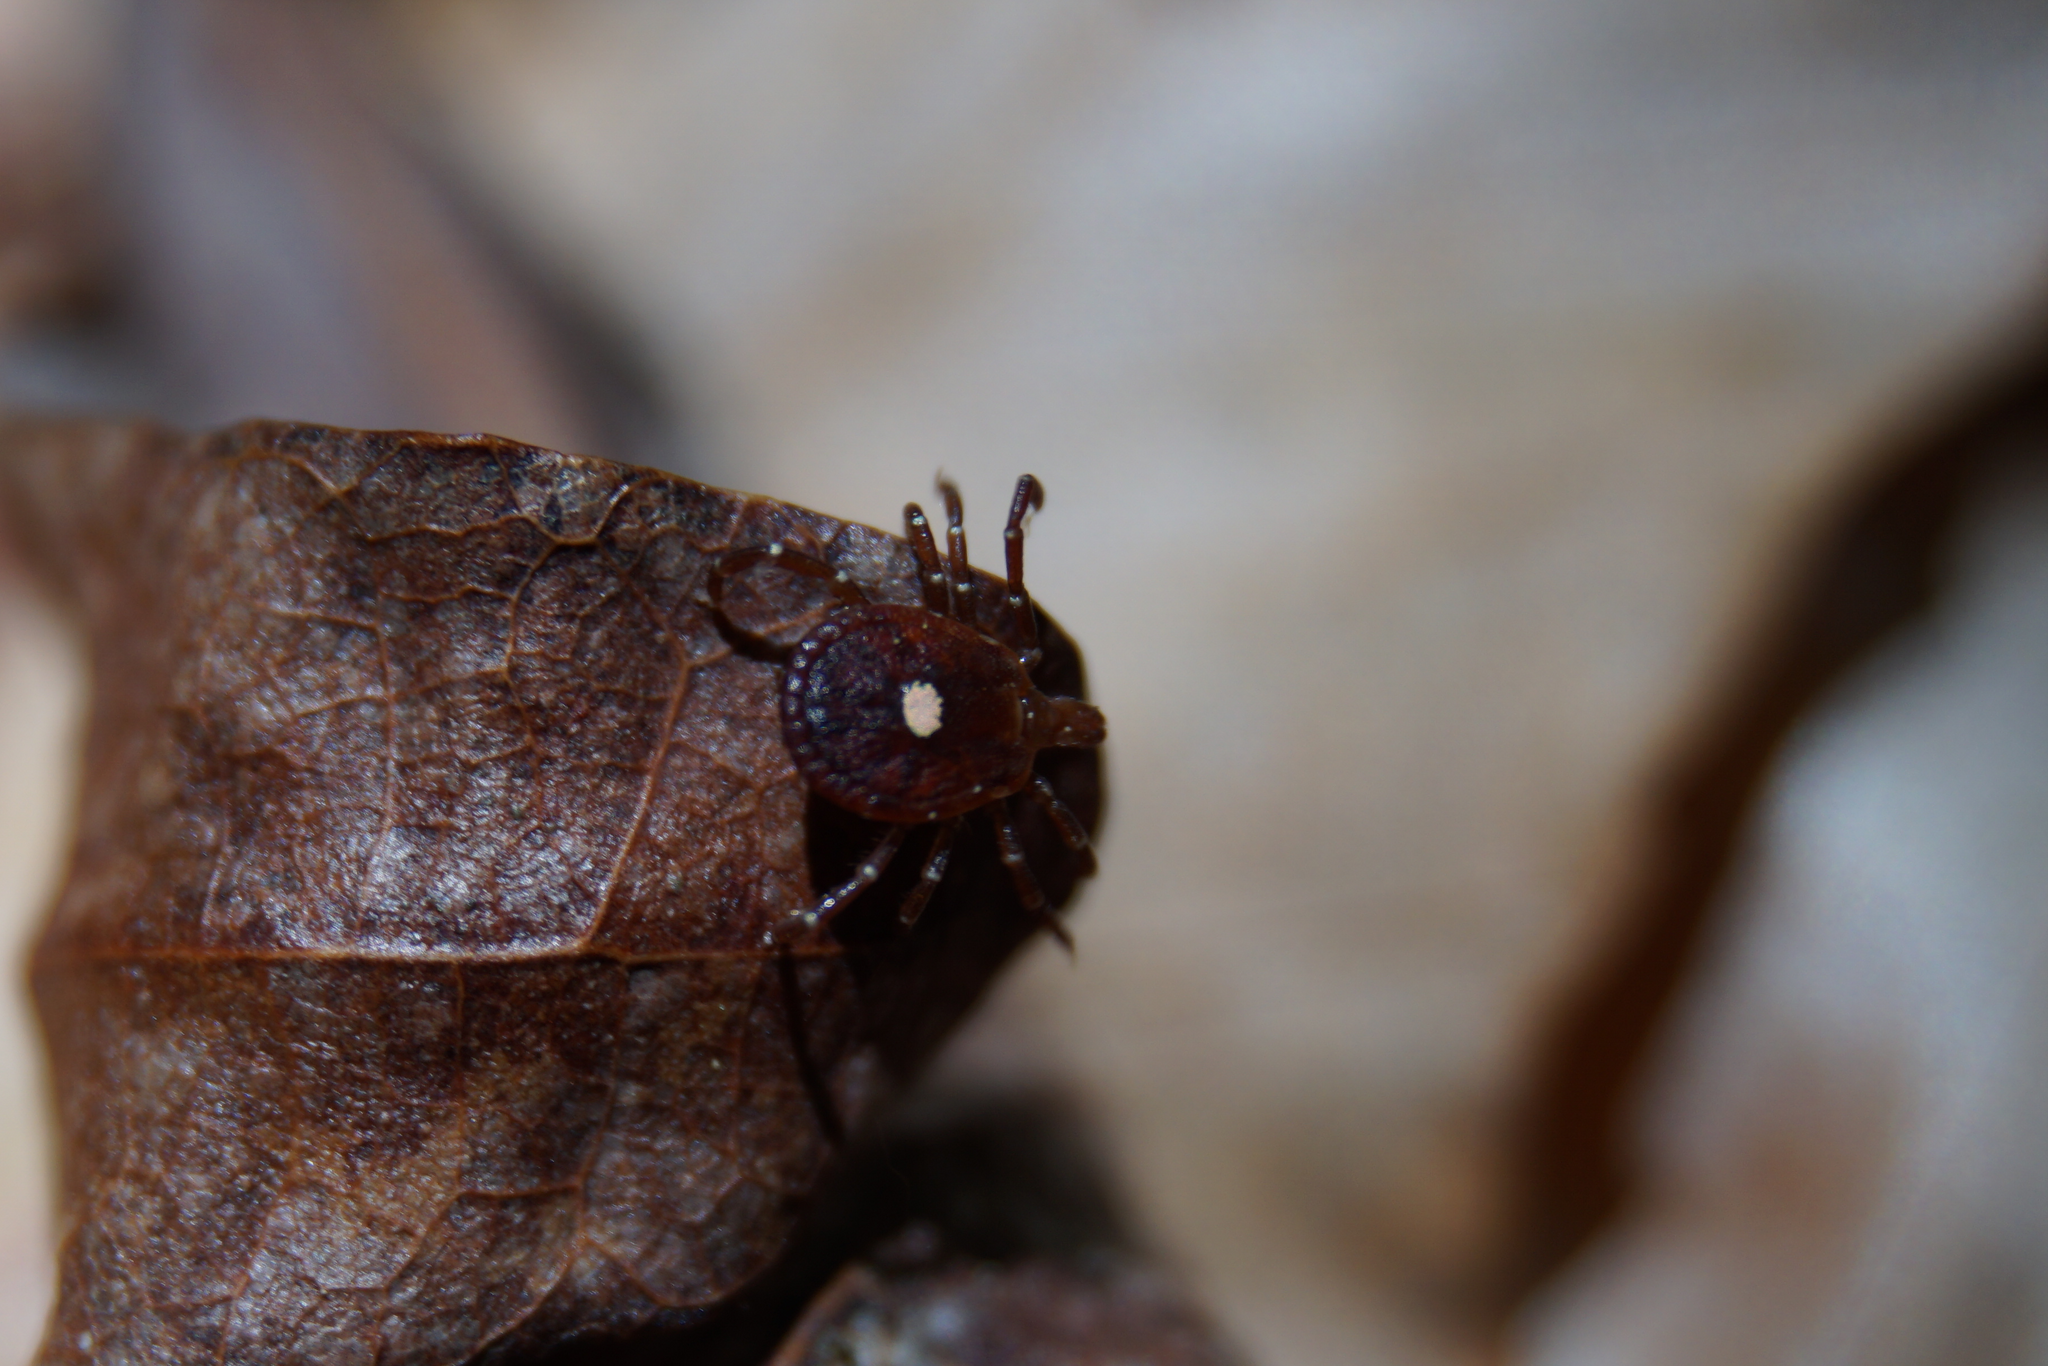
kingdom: Animalia
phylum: Arthropoda
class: Arachnida
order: Ixodida
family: Ixodidae
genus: Amblyomma
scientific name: Amblyomma americanum
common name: Lone star tick
